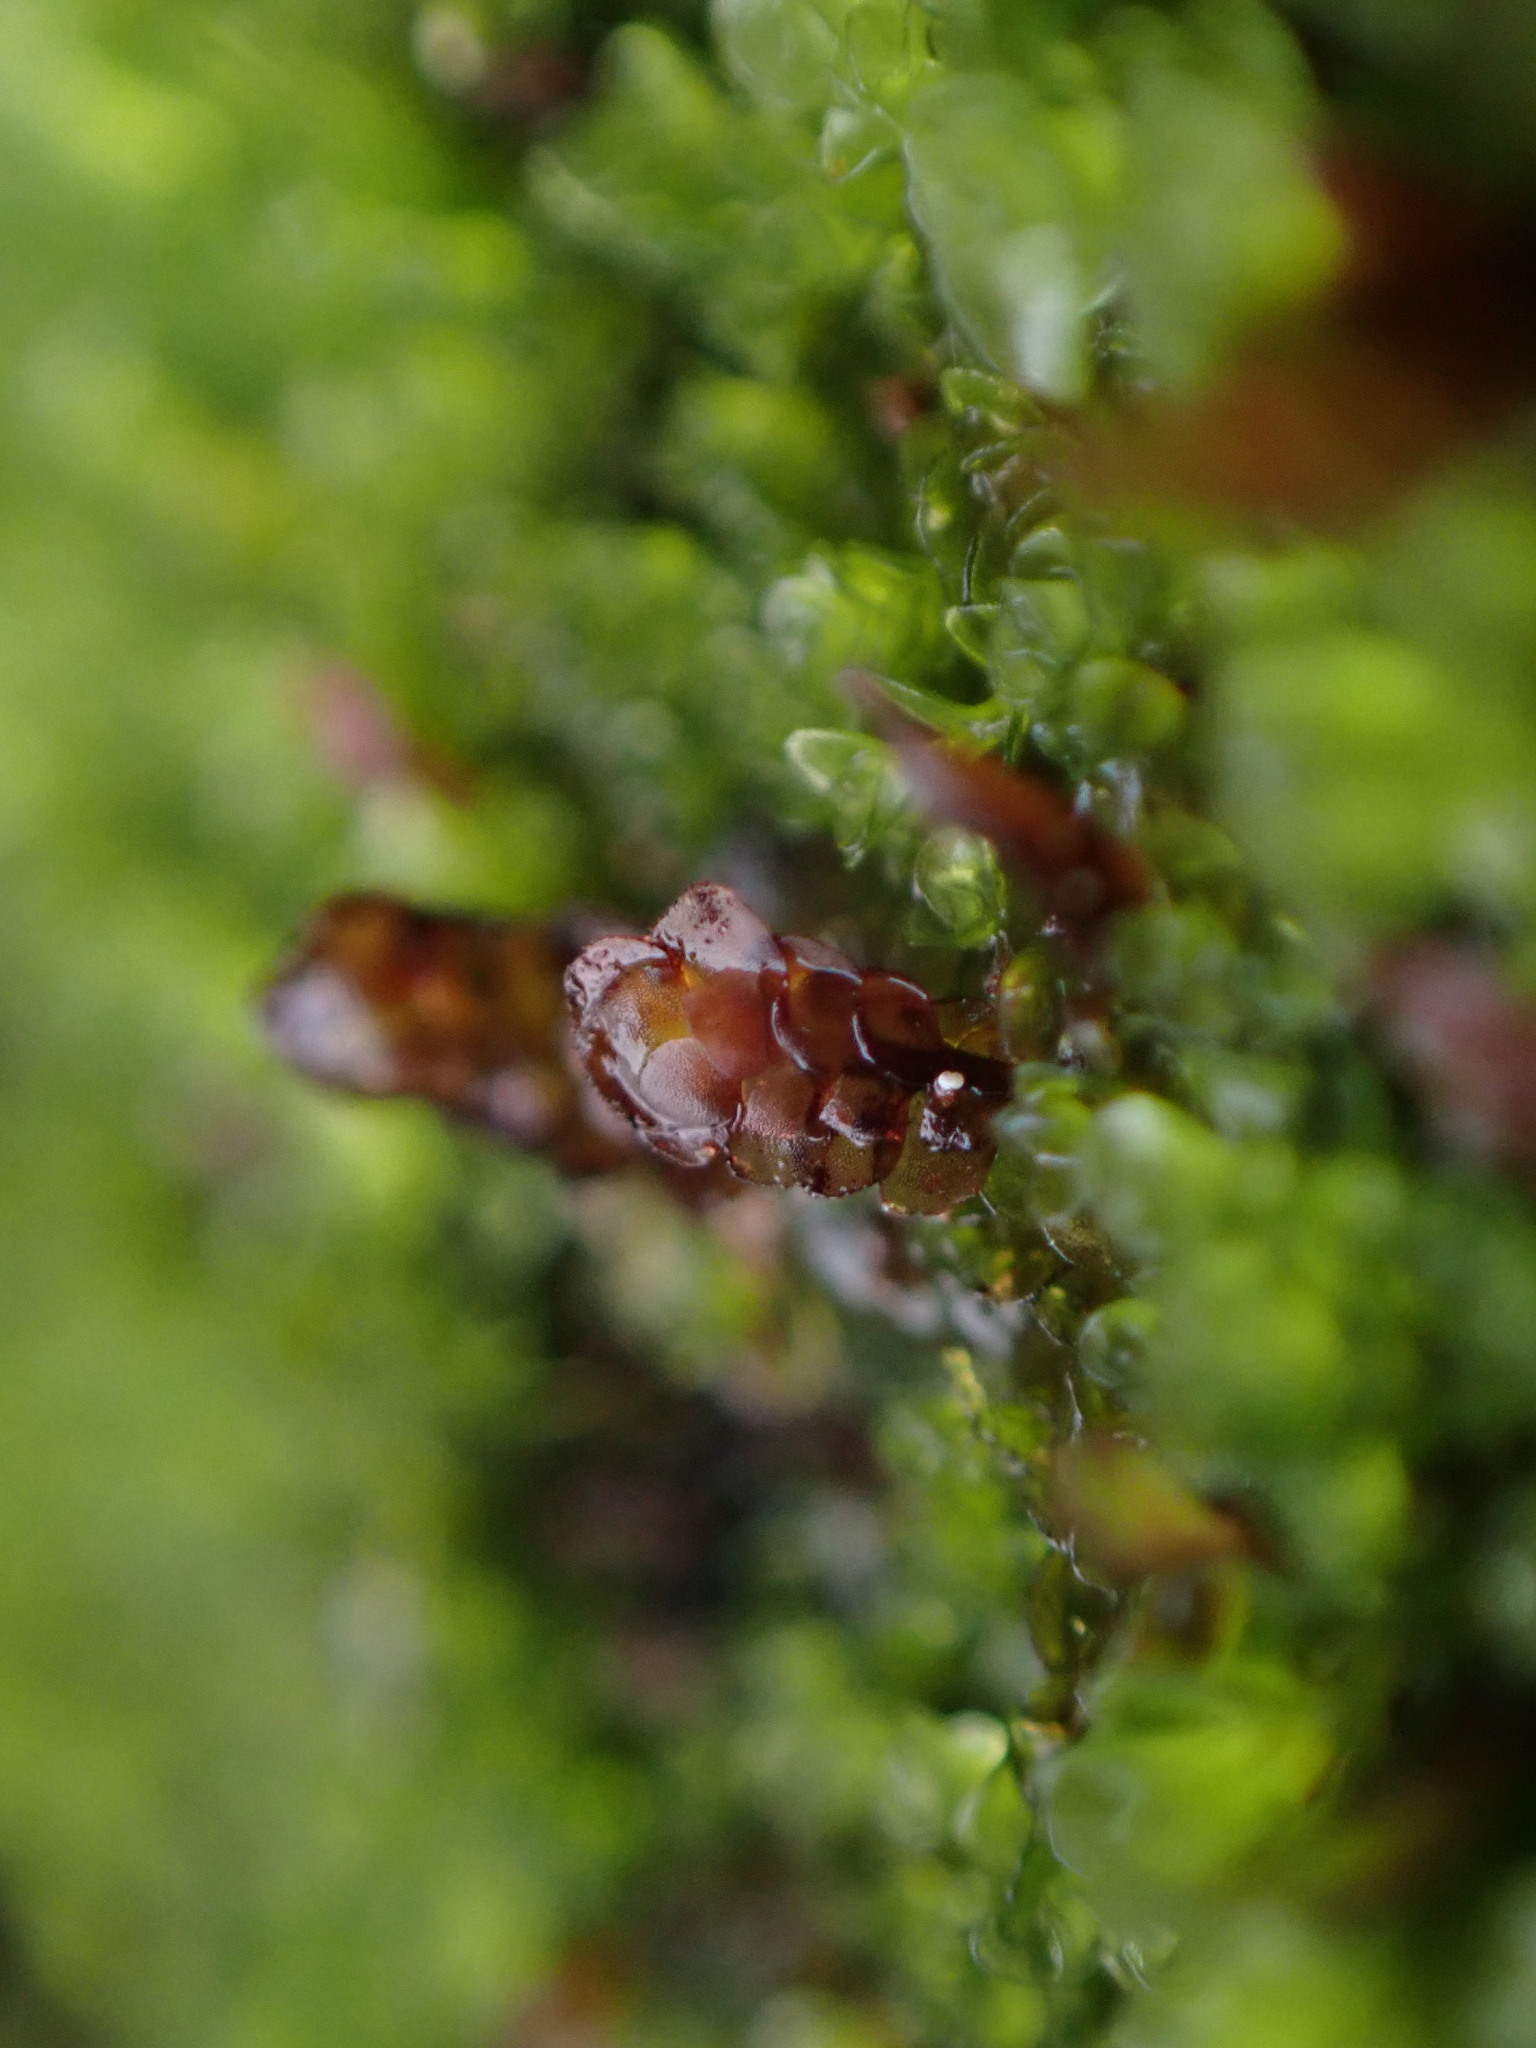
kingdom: Plantae
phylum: Marchantiophyta
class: Jungermanniopsida
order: Jungermanniales
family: Scapaniaceae
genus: Diplophyllum
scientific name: Diplophyllum obtusifolium
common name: Blunt-leaved earwort
